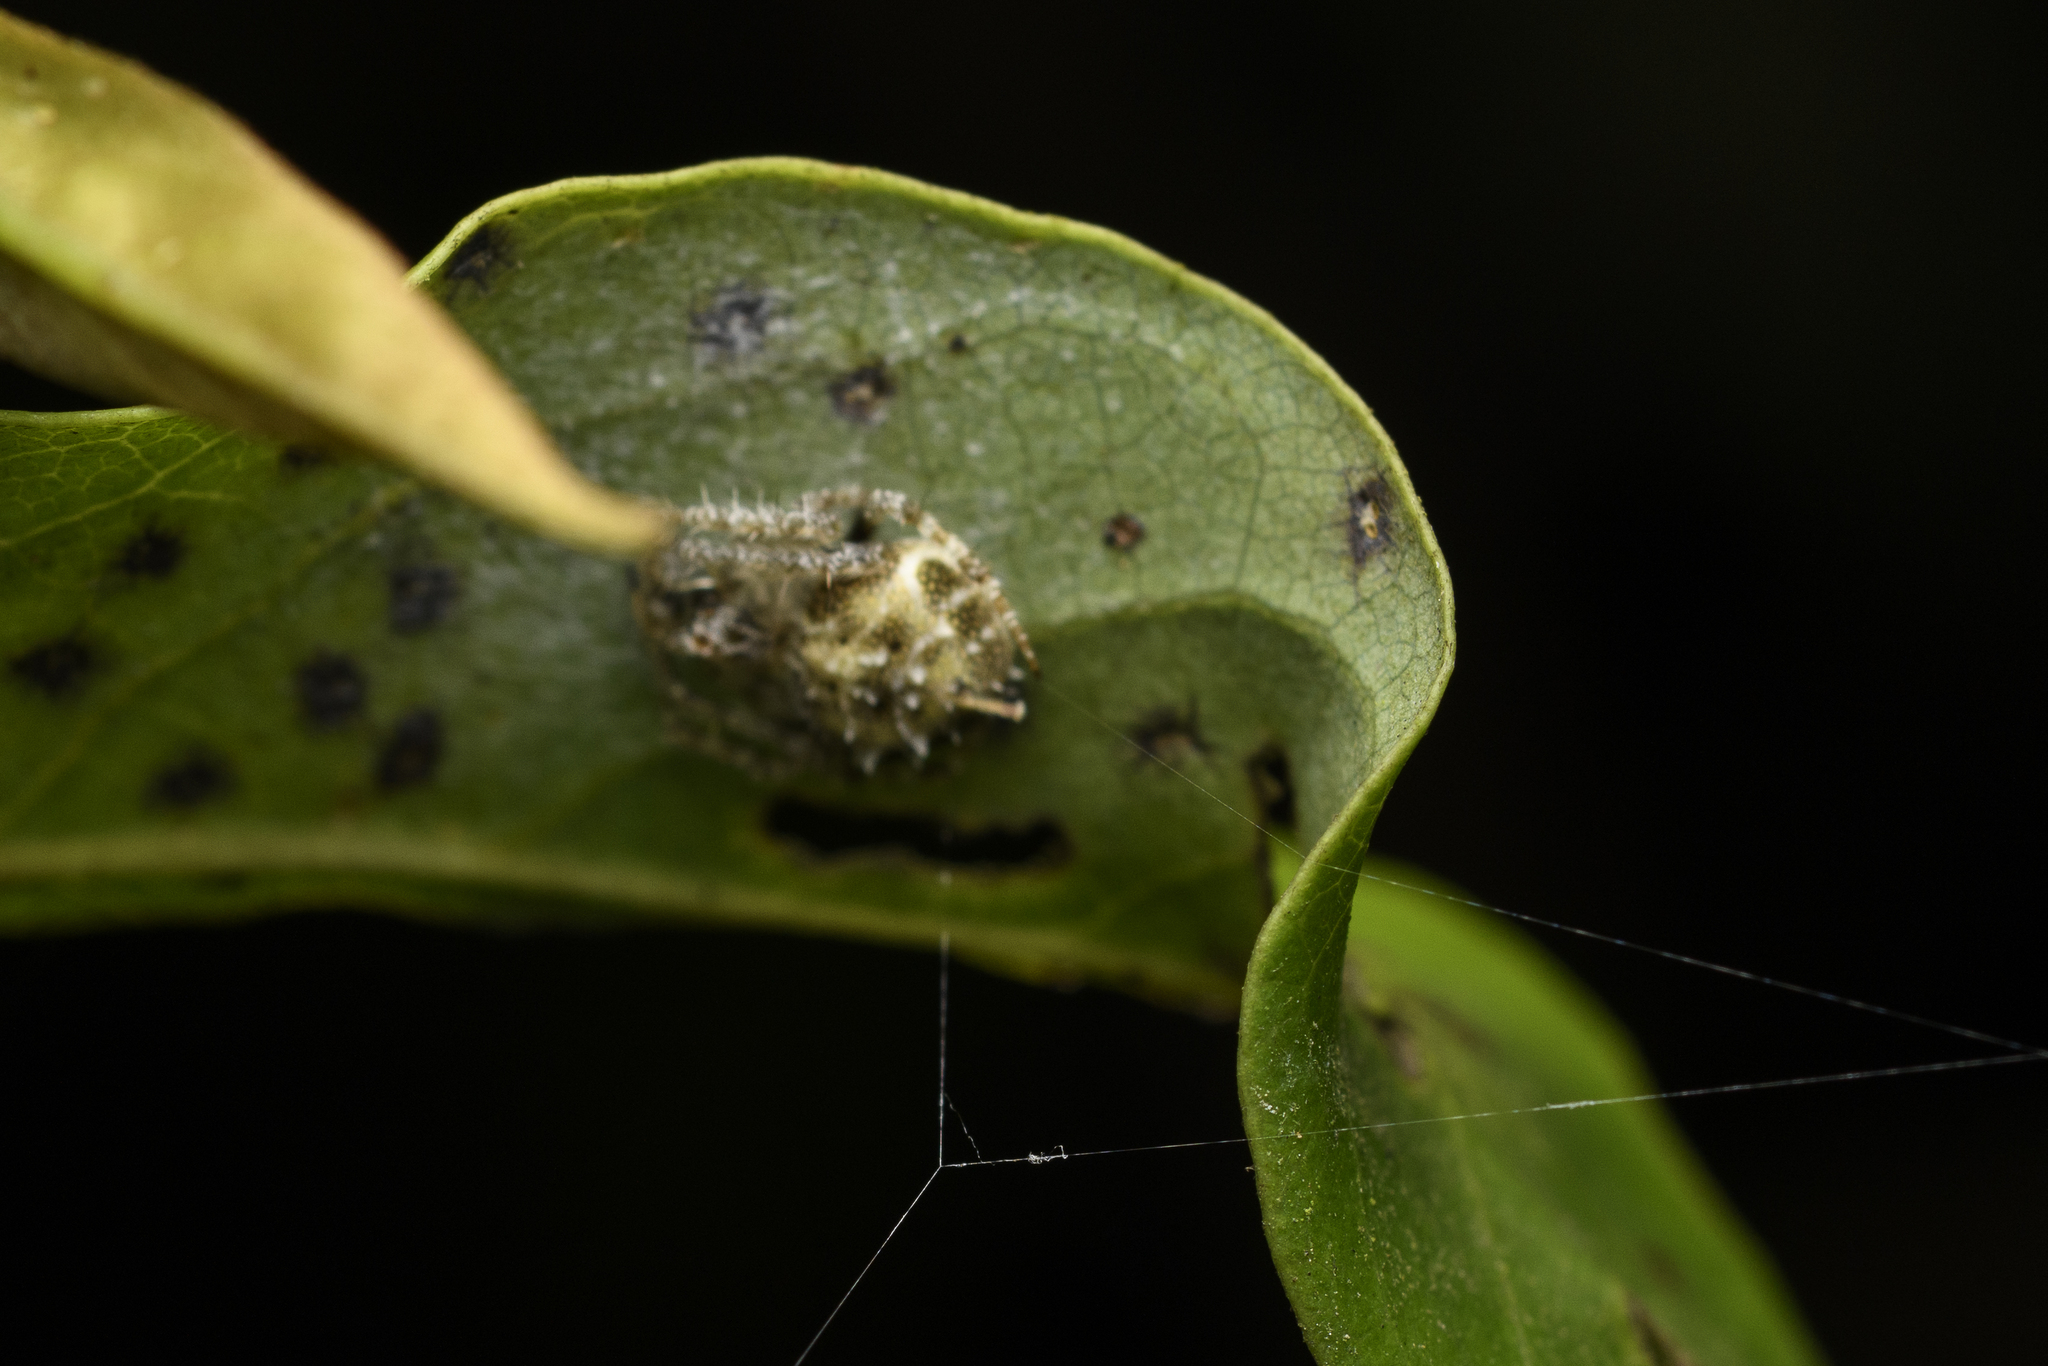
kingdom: Animalia
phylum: Arthropoda
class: Arachnida
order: Araneae
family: Araneidae
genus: Eriovixia
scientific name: Eriovixia laglaizei
